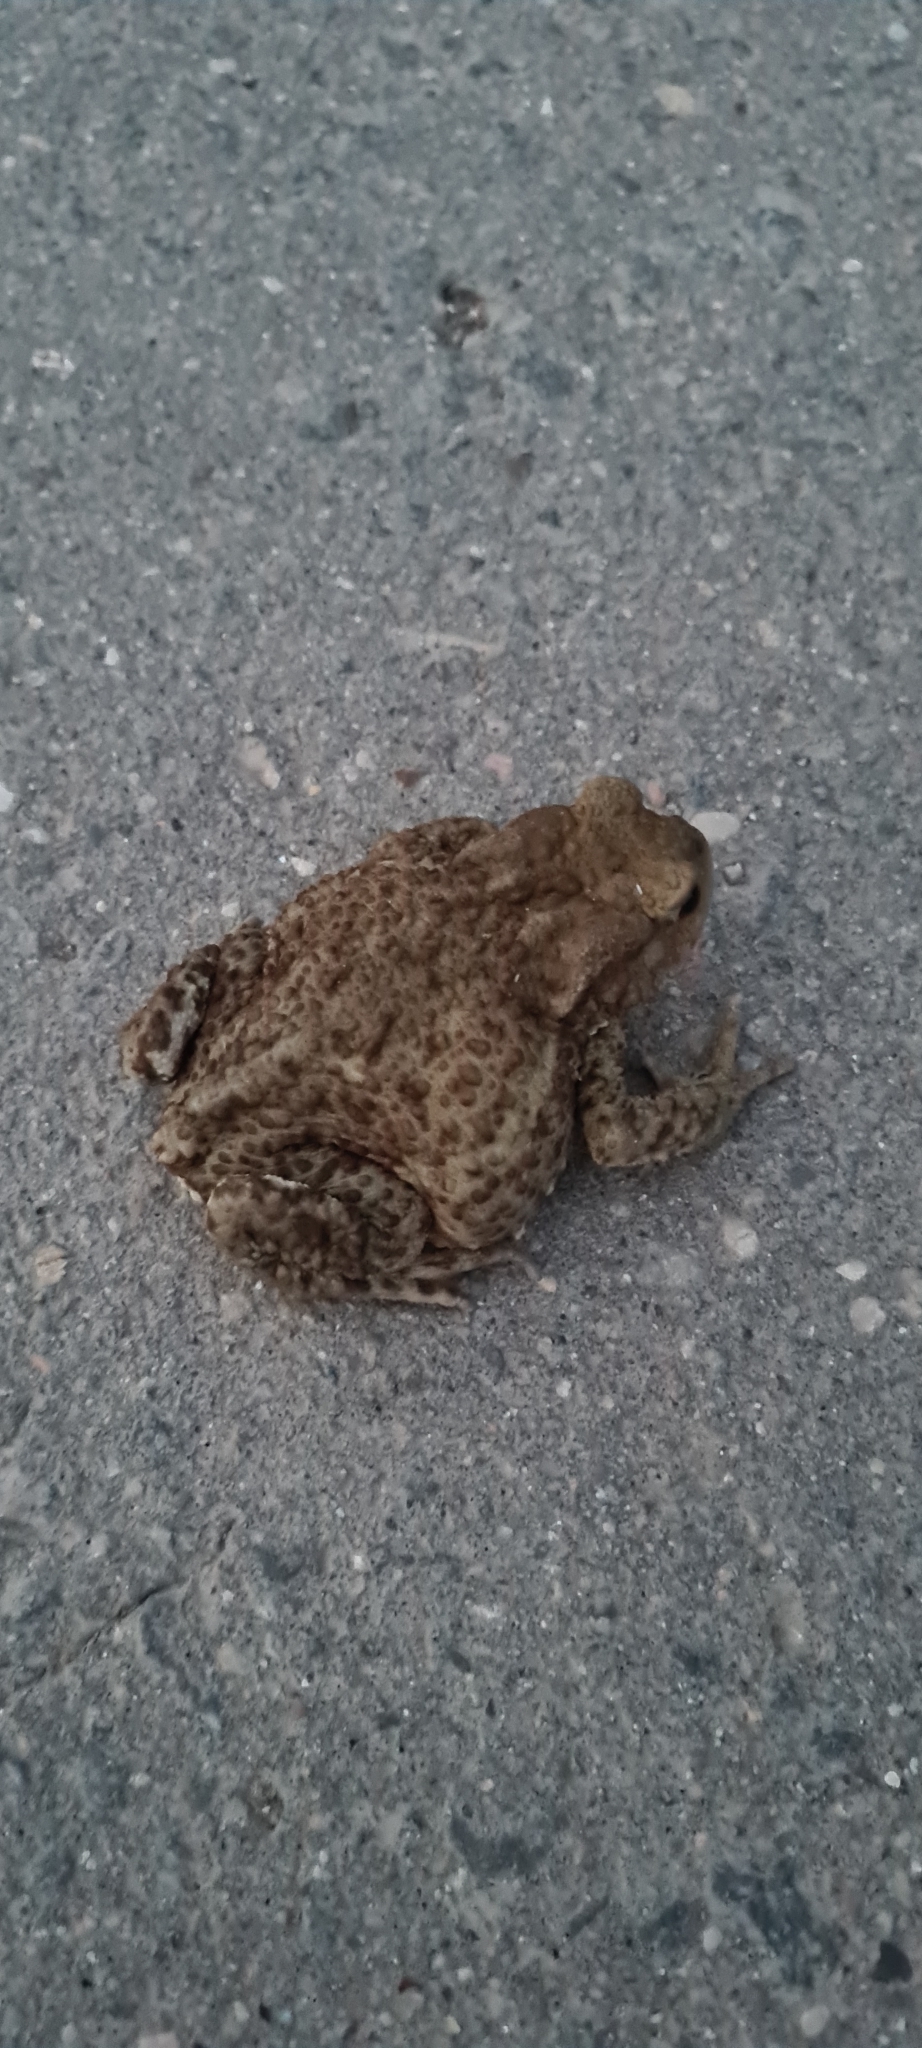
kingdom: Animalia
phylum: Chordata
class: Amphibia
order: Anura
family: Bufonidae
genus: Bufo
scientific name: Bufo bufo
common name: Common toad
